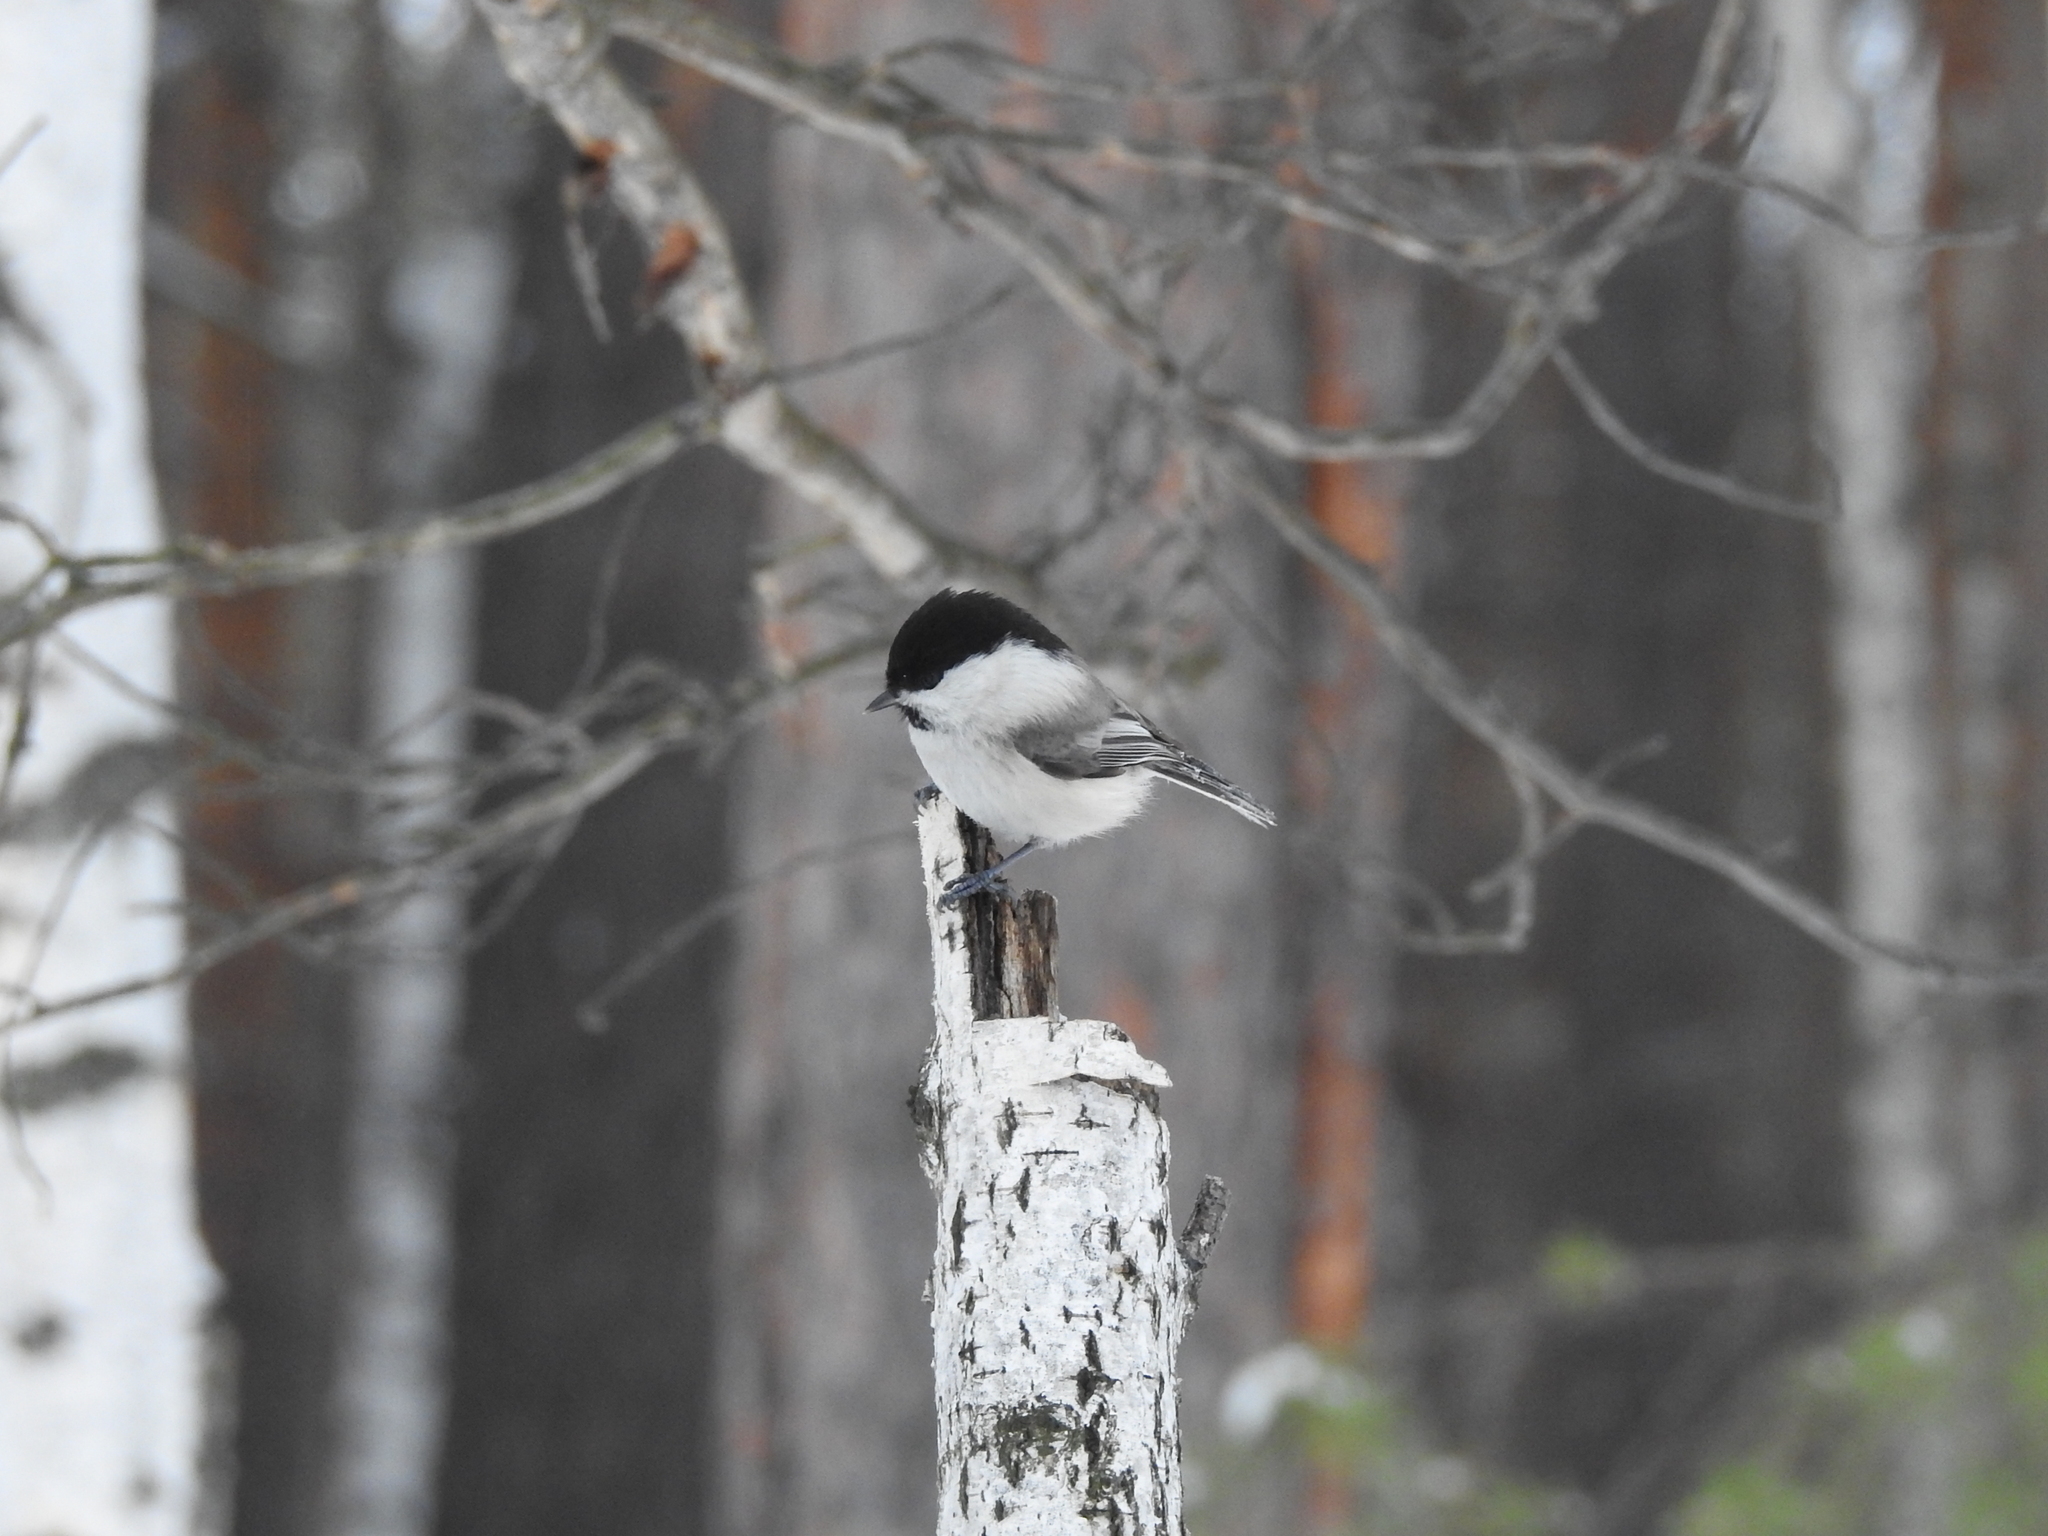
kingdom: Animalia
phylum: Chordata
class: Aves
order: Passeriformes
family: Paridae
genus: Poecile
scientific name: Poecile montanus
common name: Willow tit
